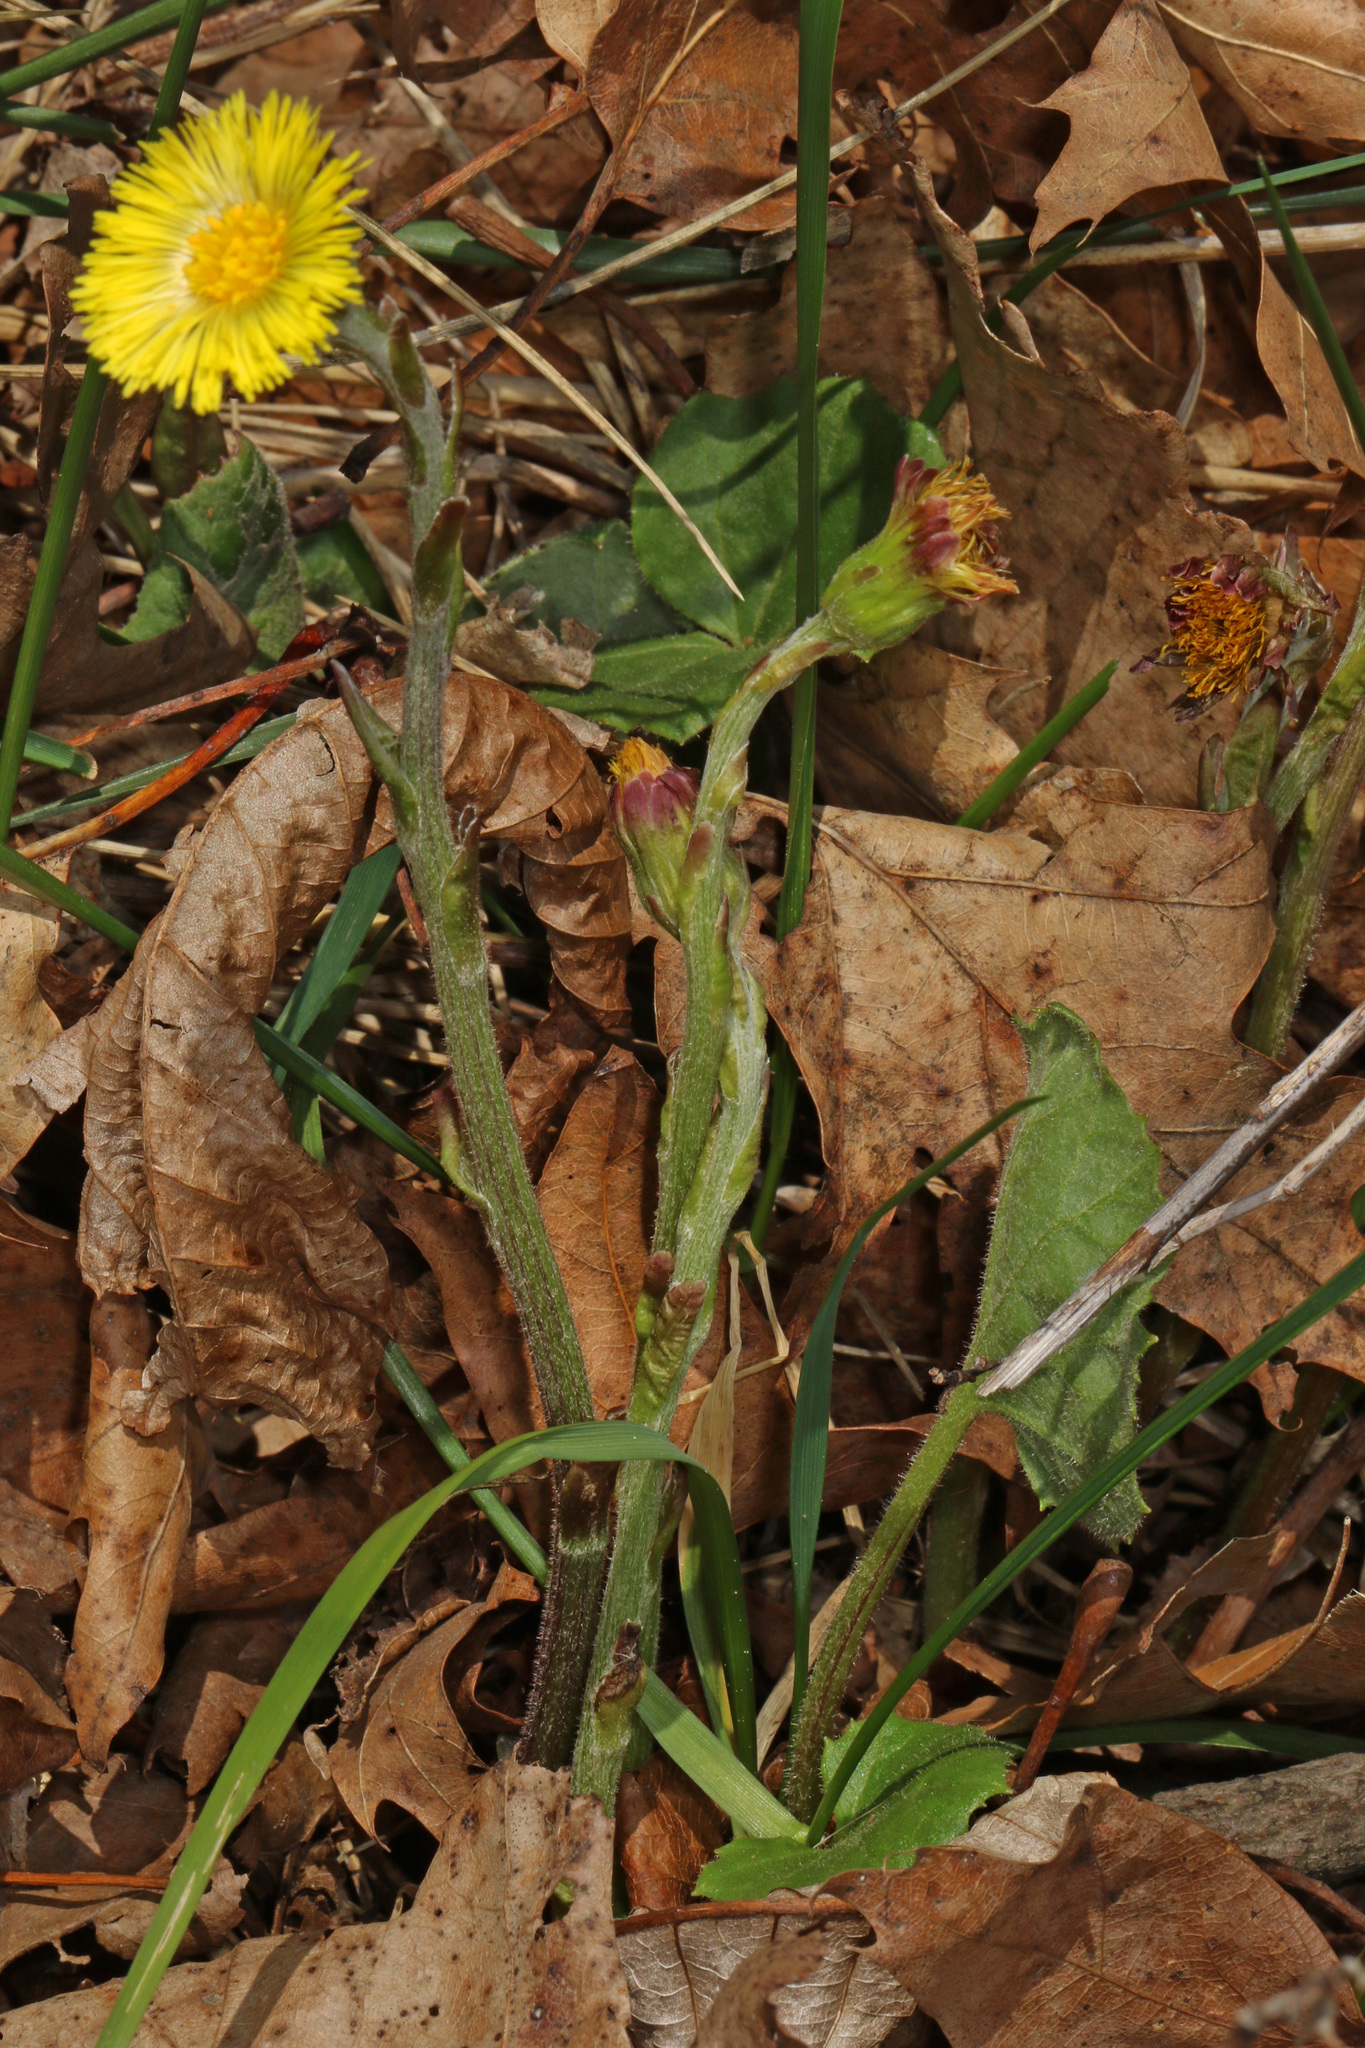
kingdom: Plantae
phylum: Tracheophyta
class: Magnoliopsida
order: Asterales
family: Asteraceae
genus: Tussilago
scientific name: Tussilago farfara
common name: Coltsfoot
